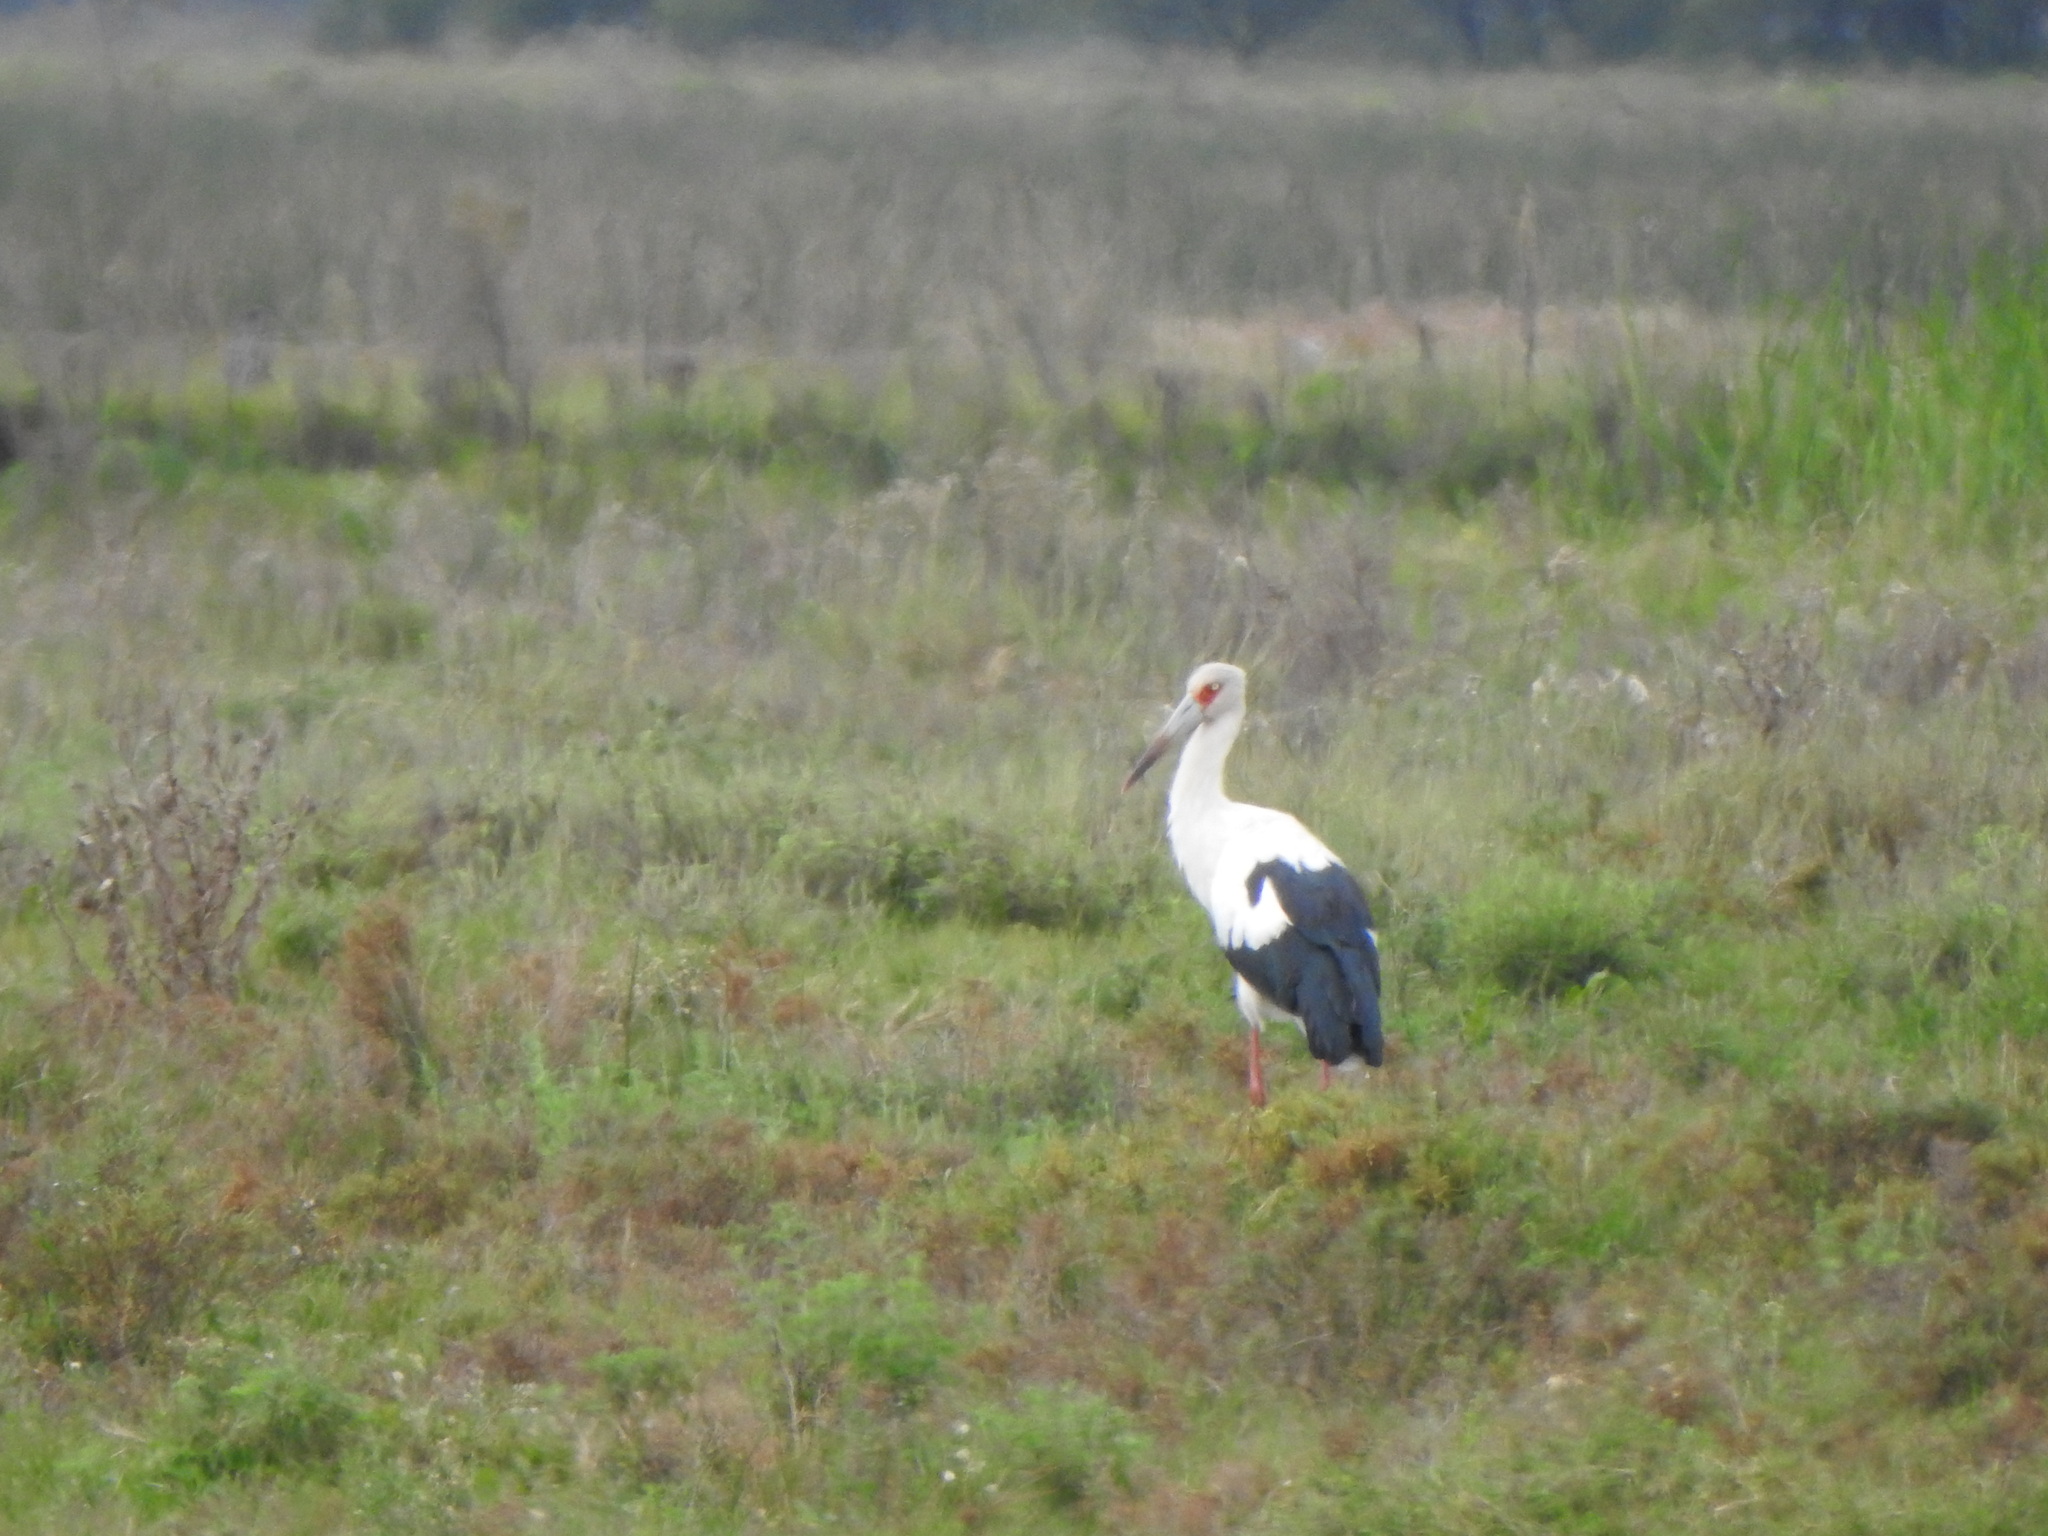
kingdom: Animalia
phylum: Chordata
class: Aves
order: Ciconiiformes
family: Ciconiidae
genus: Ciconia
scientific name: Ciconia maguari
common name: Maguari stork
